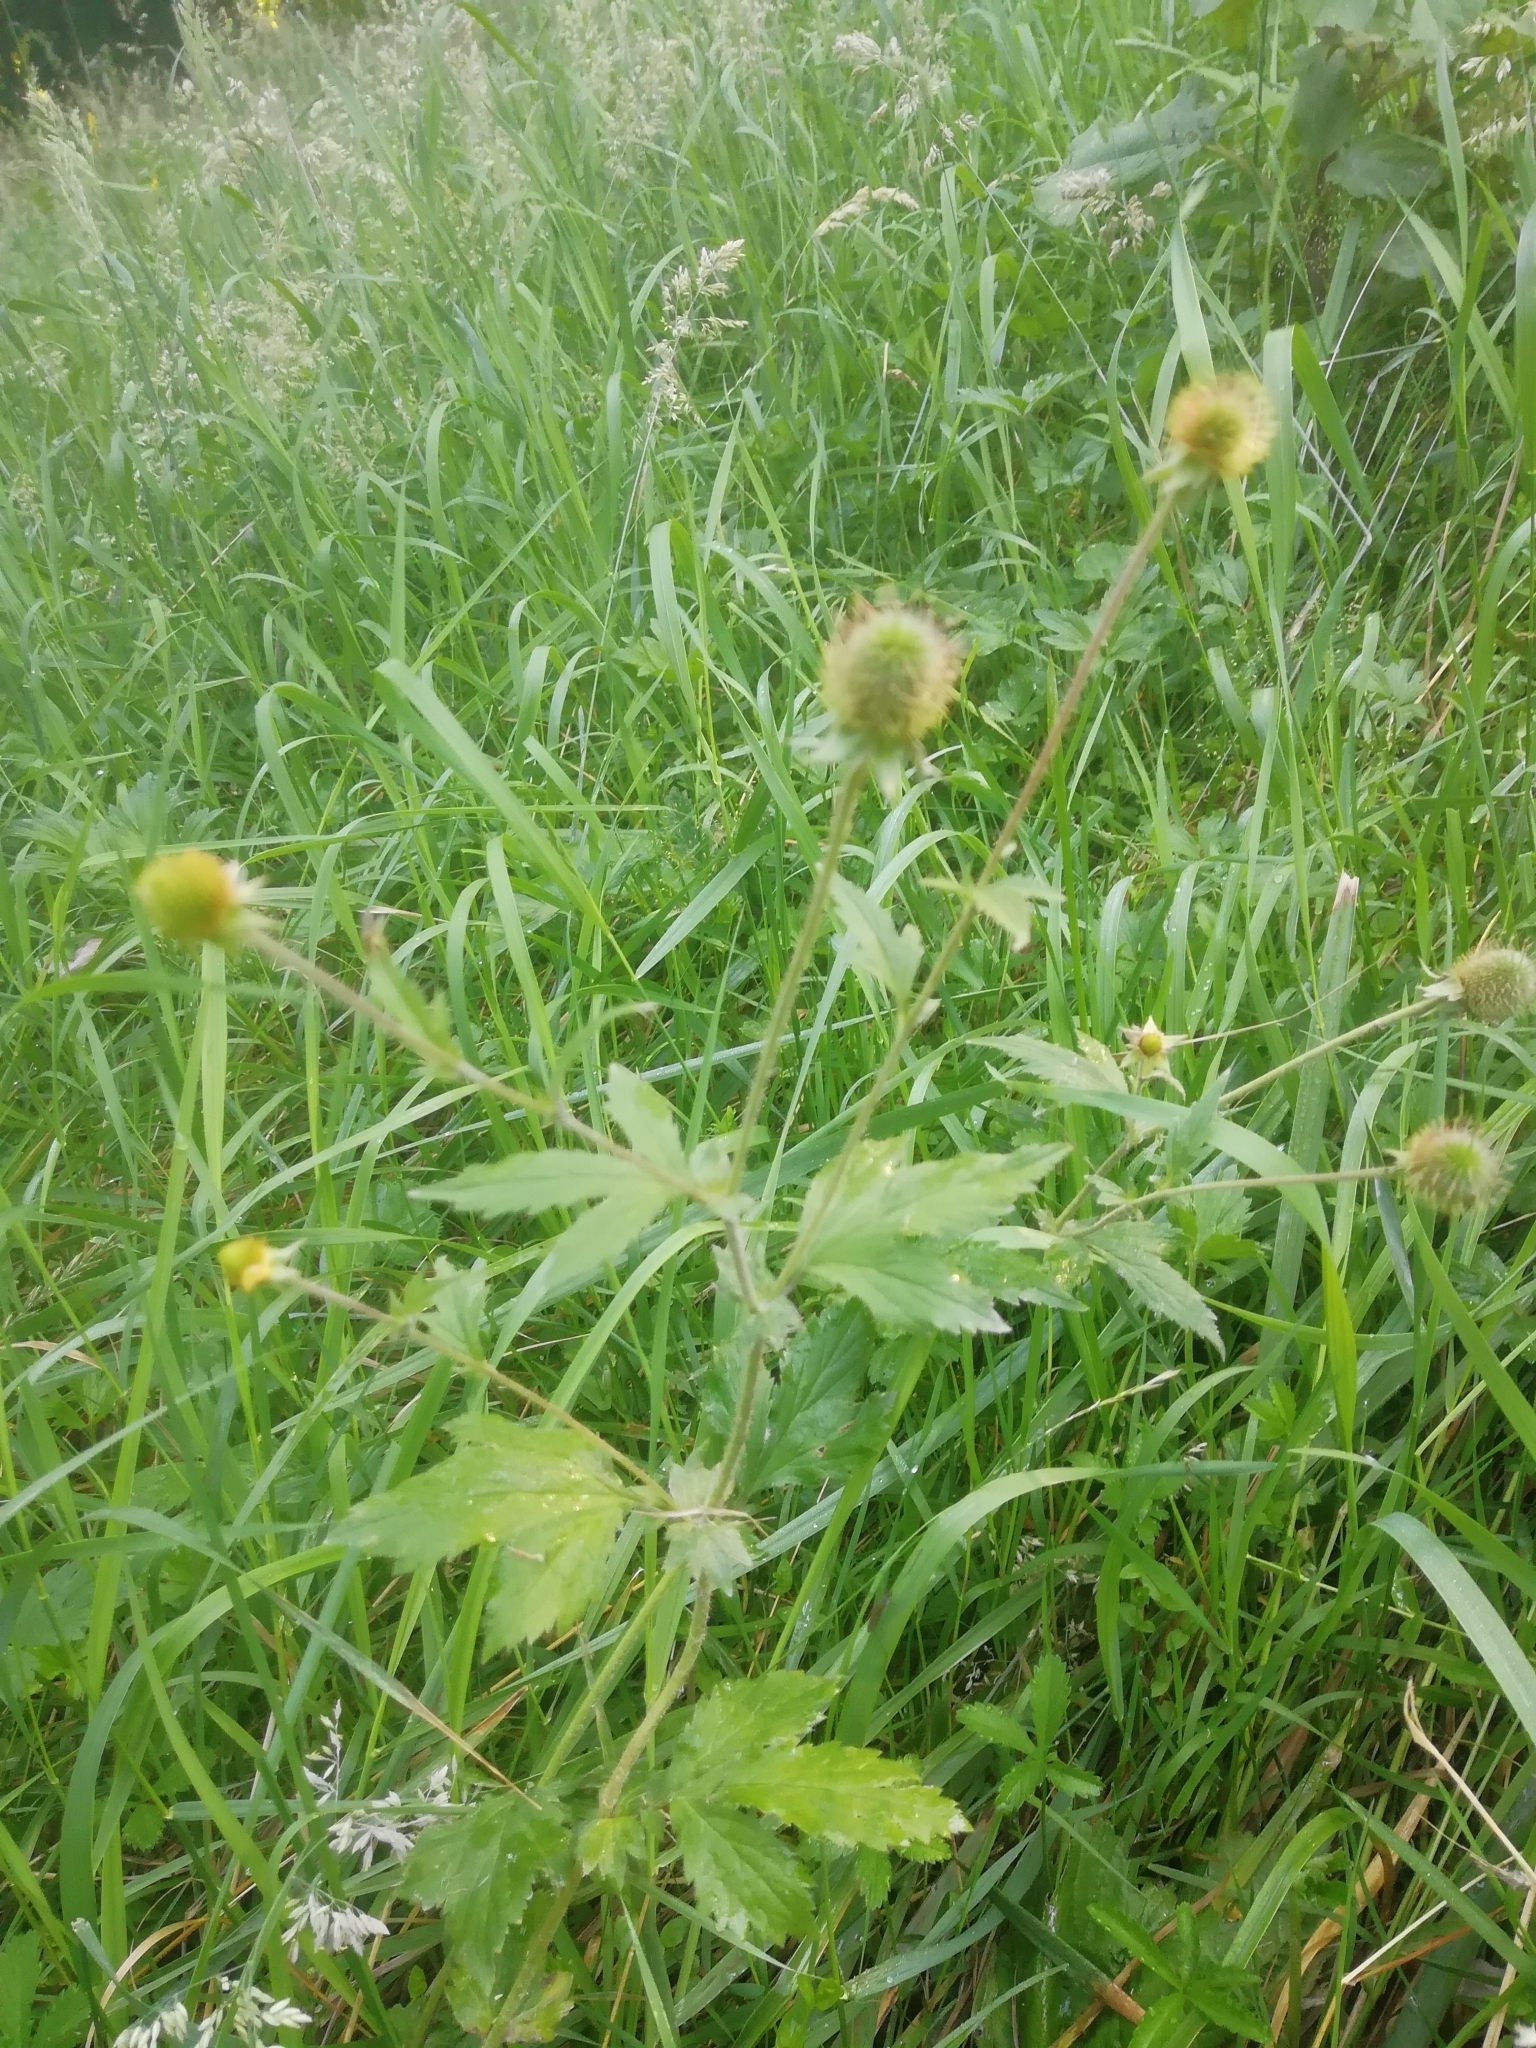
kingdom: Plantae
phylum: Tracheophyta
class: Magnoliopsida
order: Rosales
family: Rosaceae
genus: Geum
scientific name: Geum aleppicum
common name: Yellow avens
